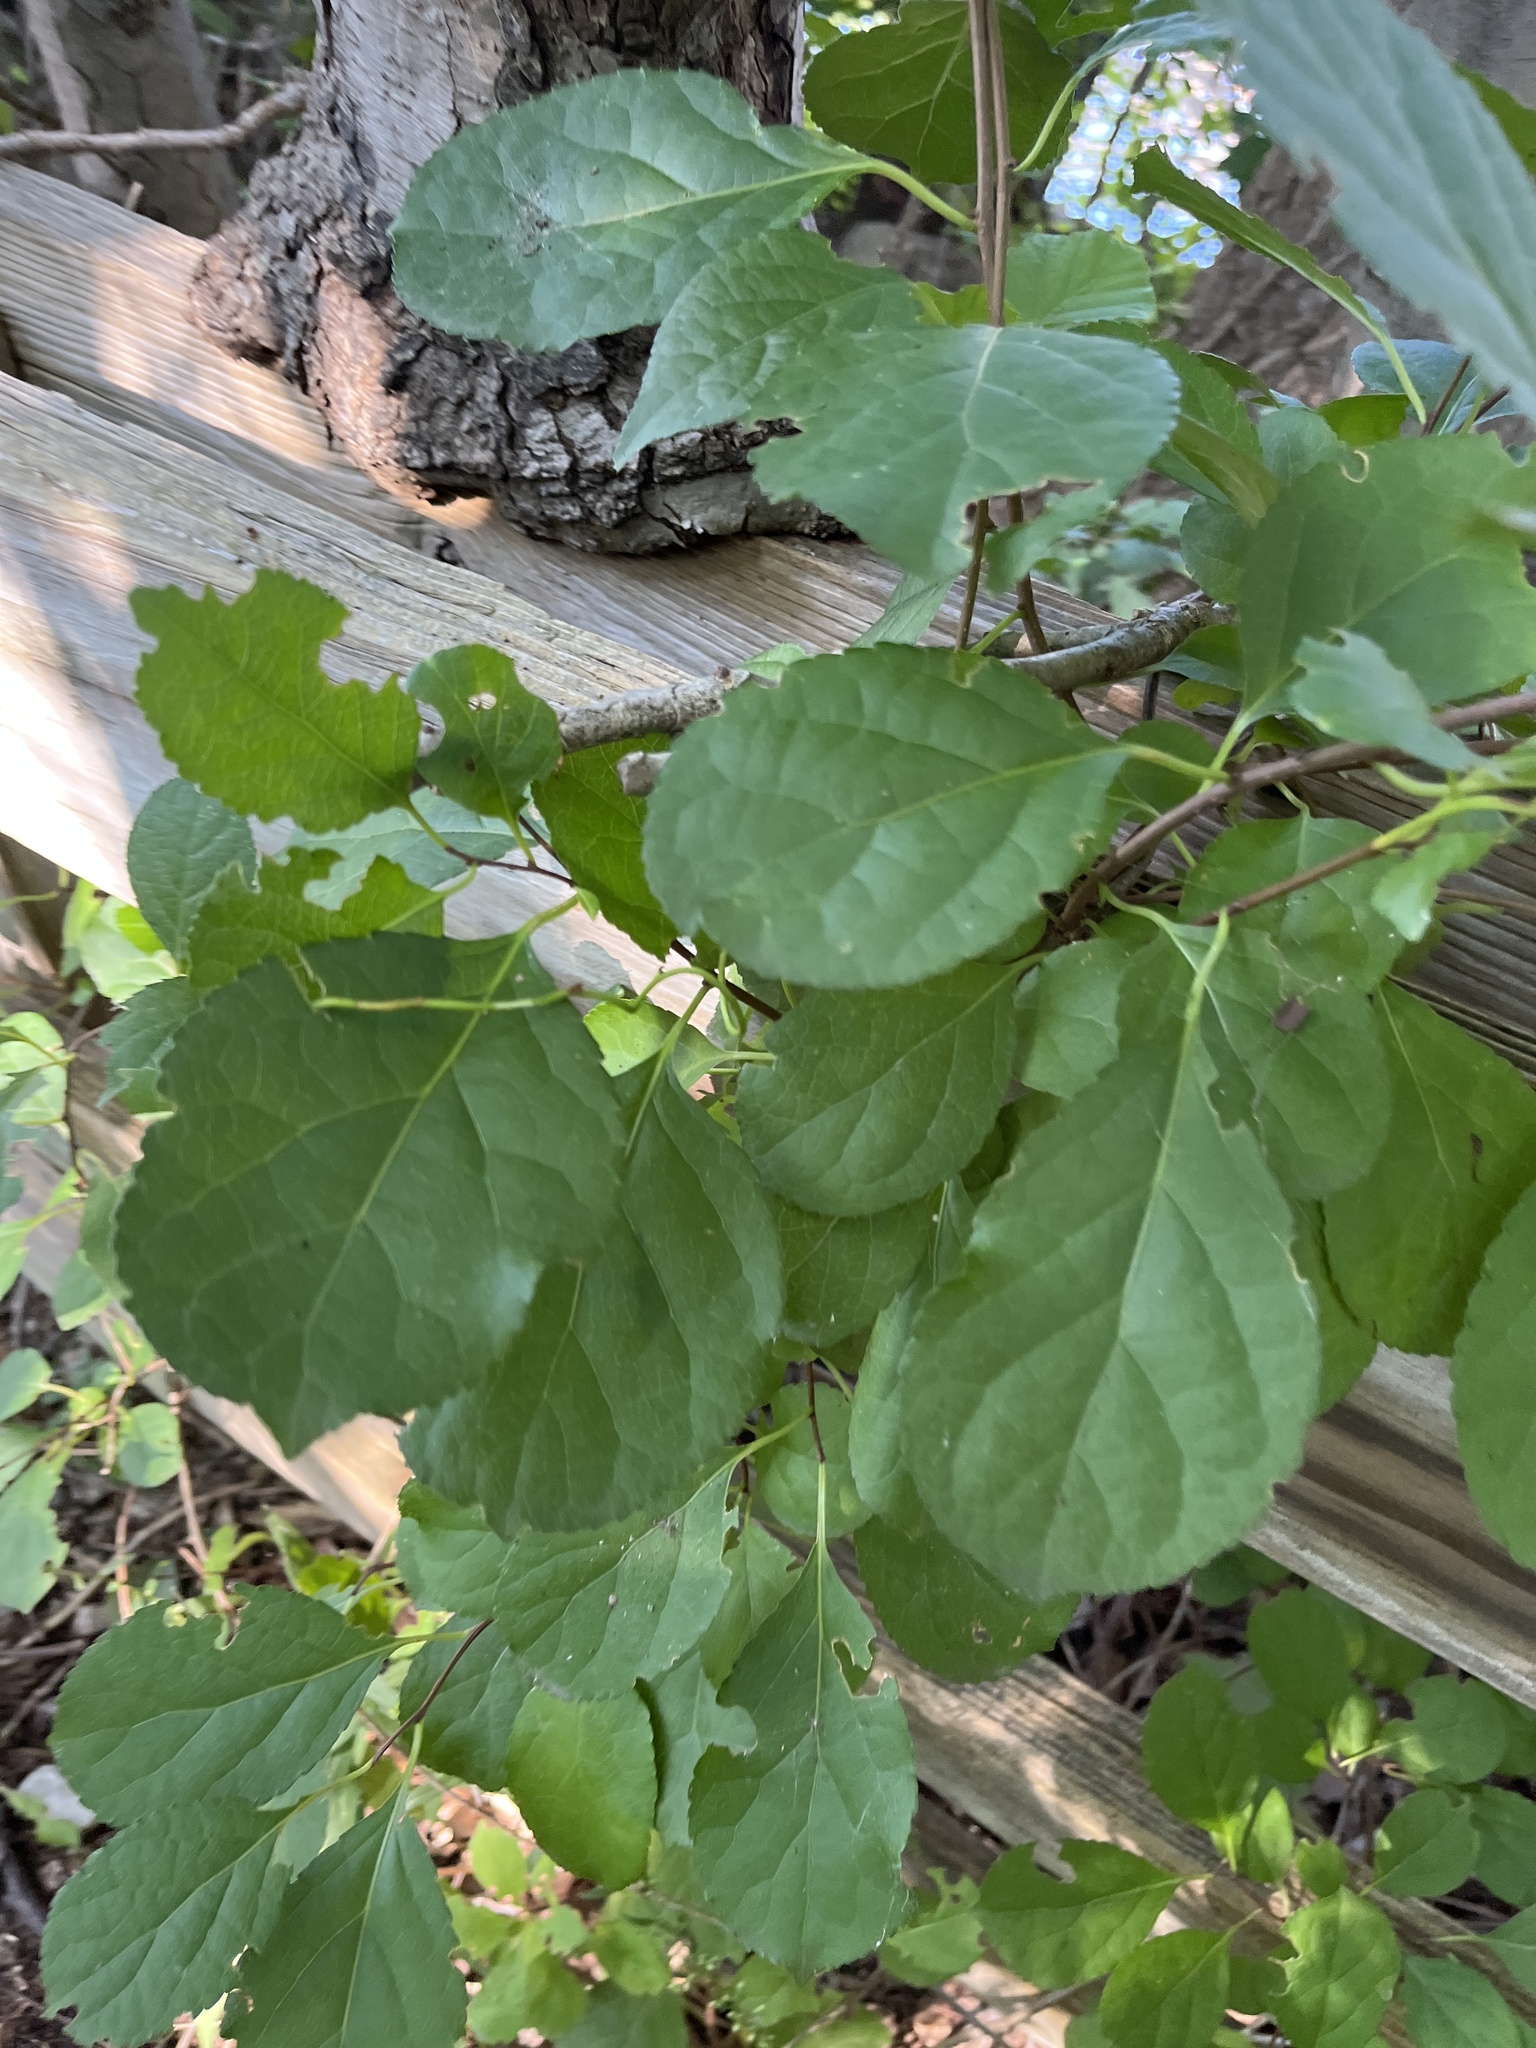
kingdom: Plantae
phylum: Tracheophyta
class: Magnoliopsida
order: Celastrales
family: Celastraceae
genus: Celastrus
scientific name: Celastrus orbiculatus
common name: Oriental bittersweet
